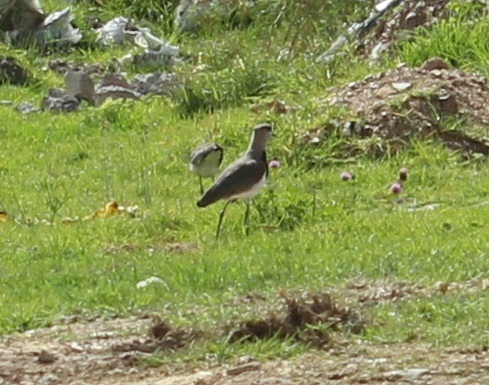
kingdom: Animalia
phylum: Chordata
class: Aves
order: Charadriiformes
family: Charadriidae
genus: Vanellus
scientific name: Vanellus chilensis
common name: Southern lapwing
